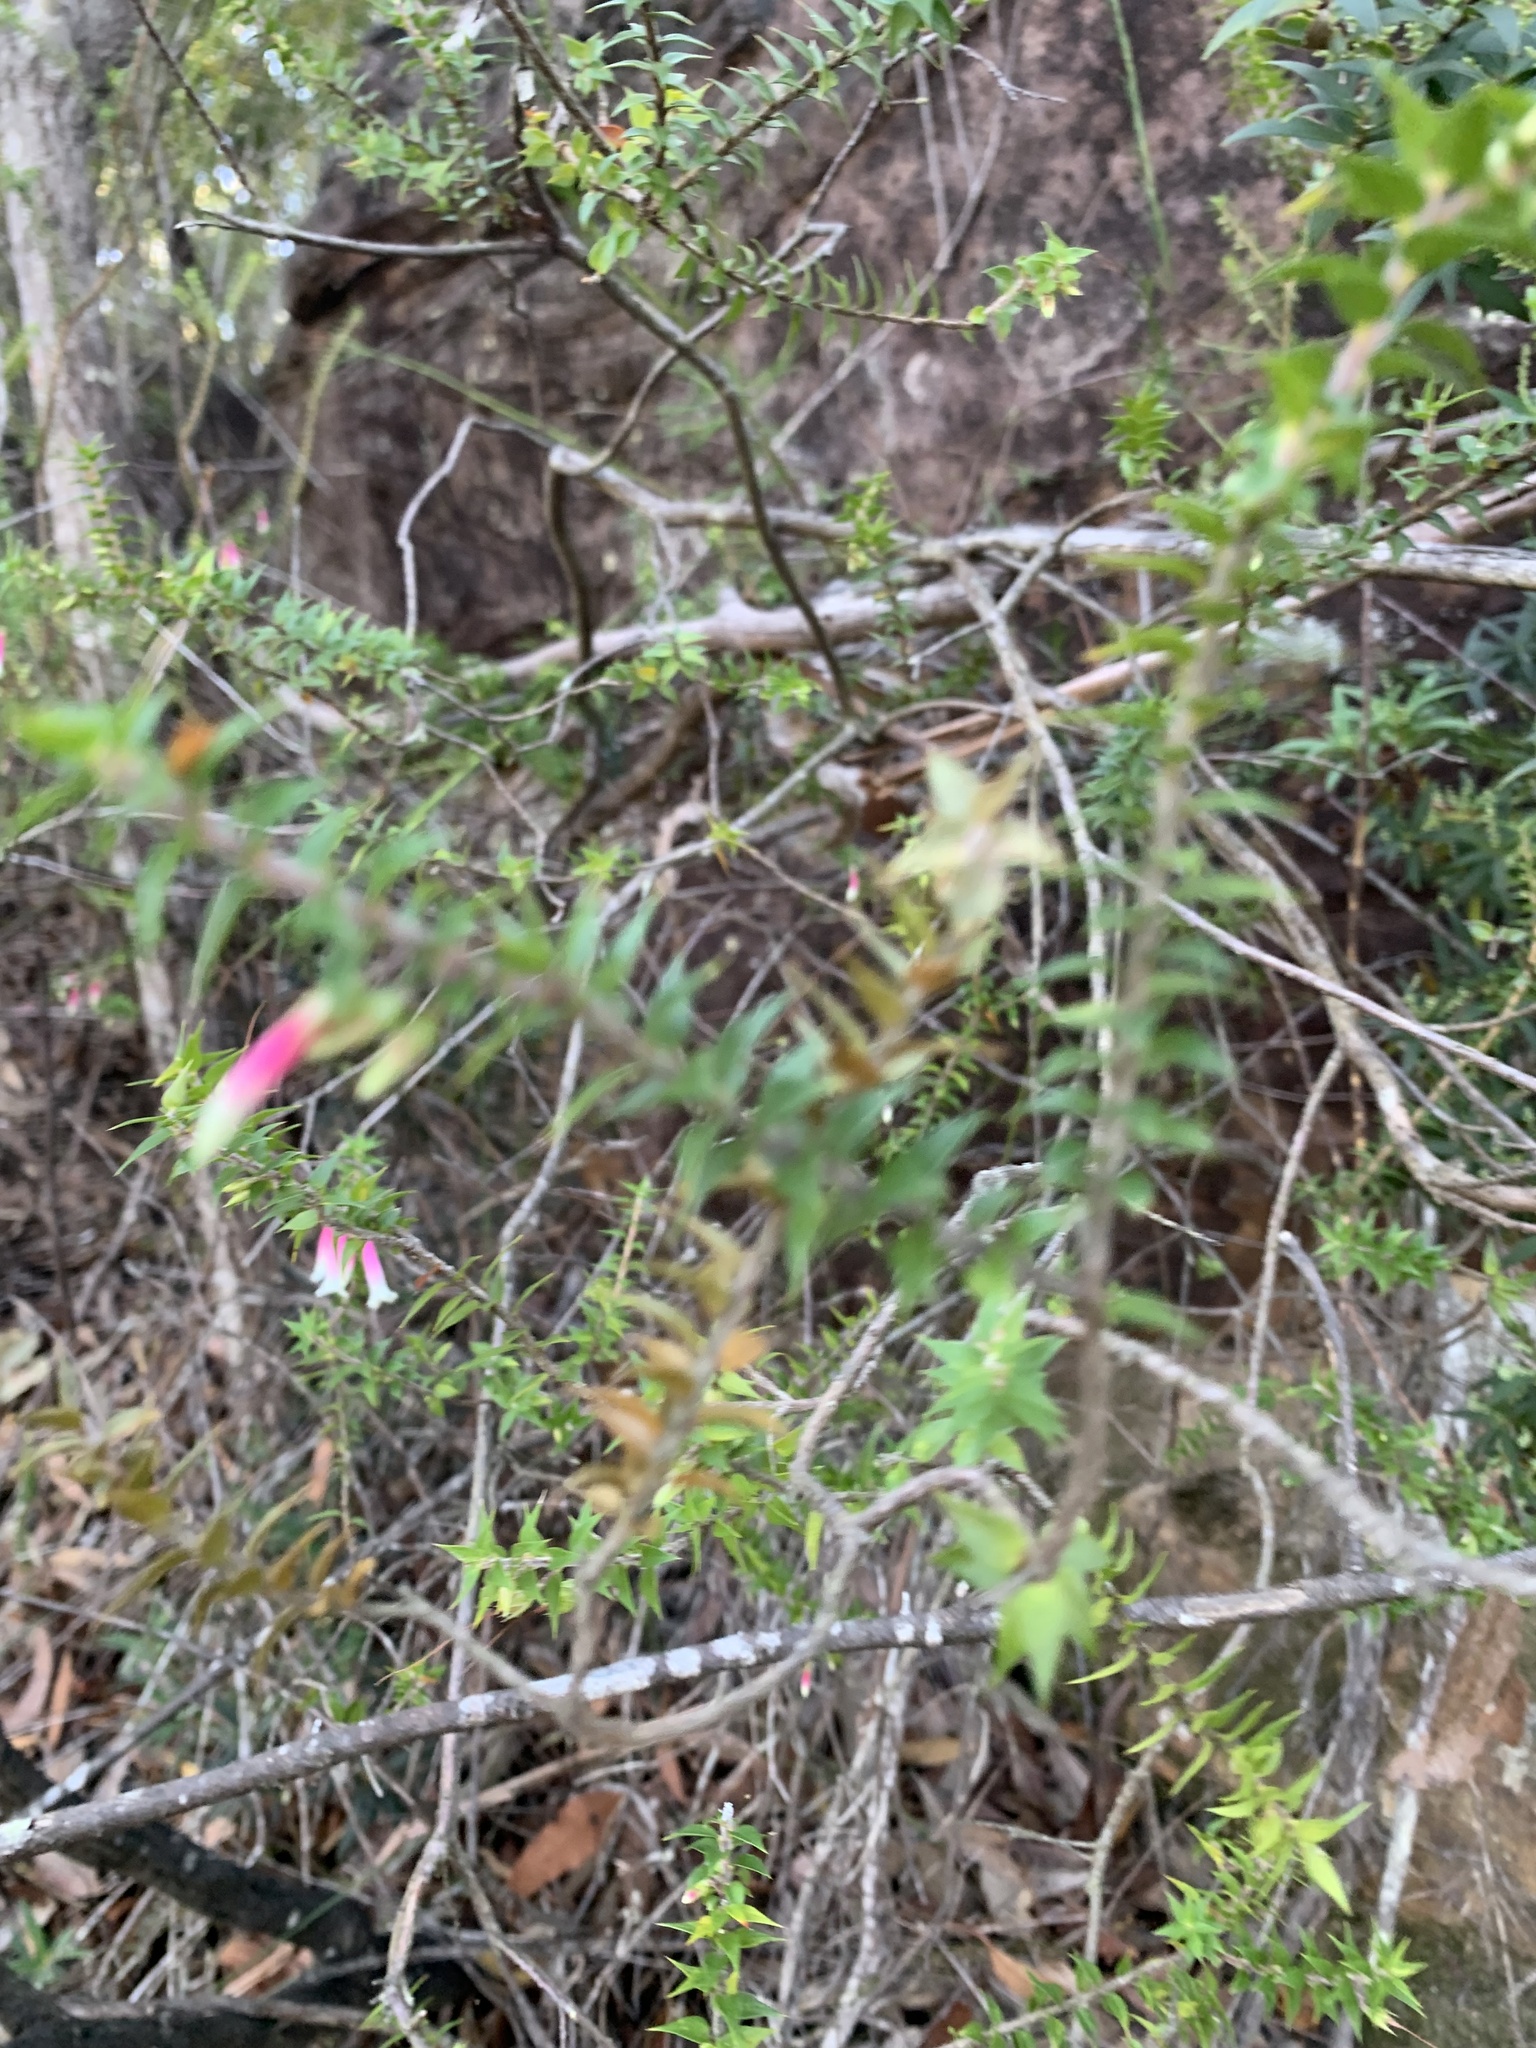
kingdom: Plantae
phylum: Tracheophyta
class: Magnoliopsida
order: Ericales
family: Ericaceae
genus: Epacris
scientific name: Epacris longiflora
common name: Fuchsia-heath
